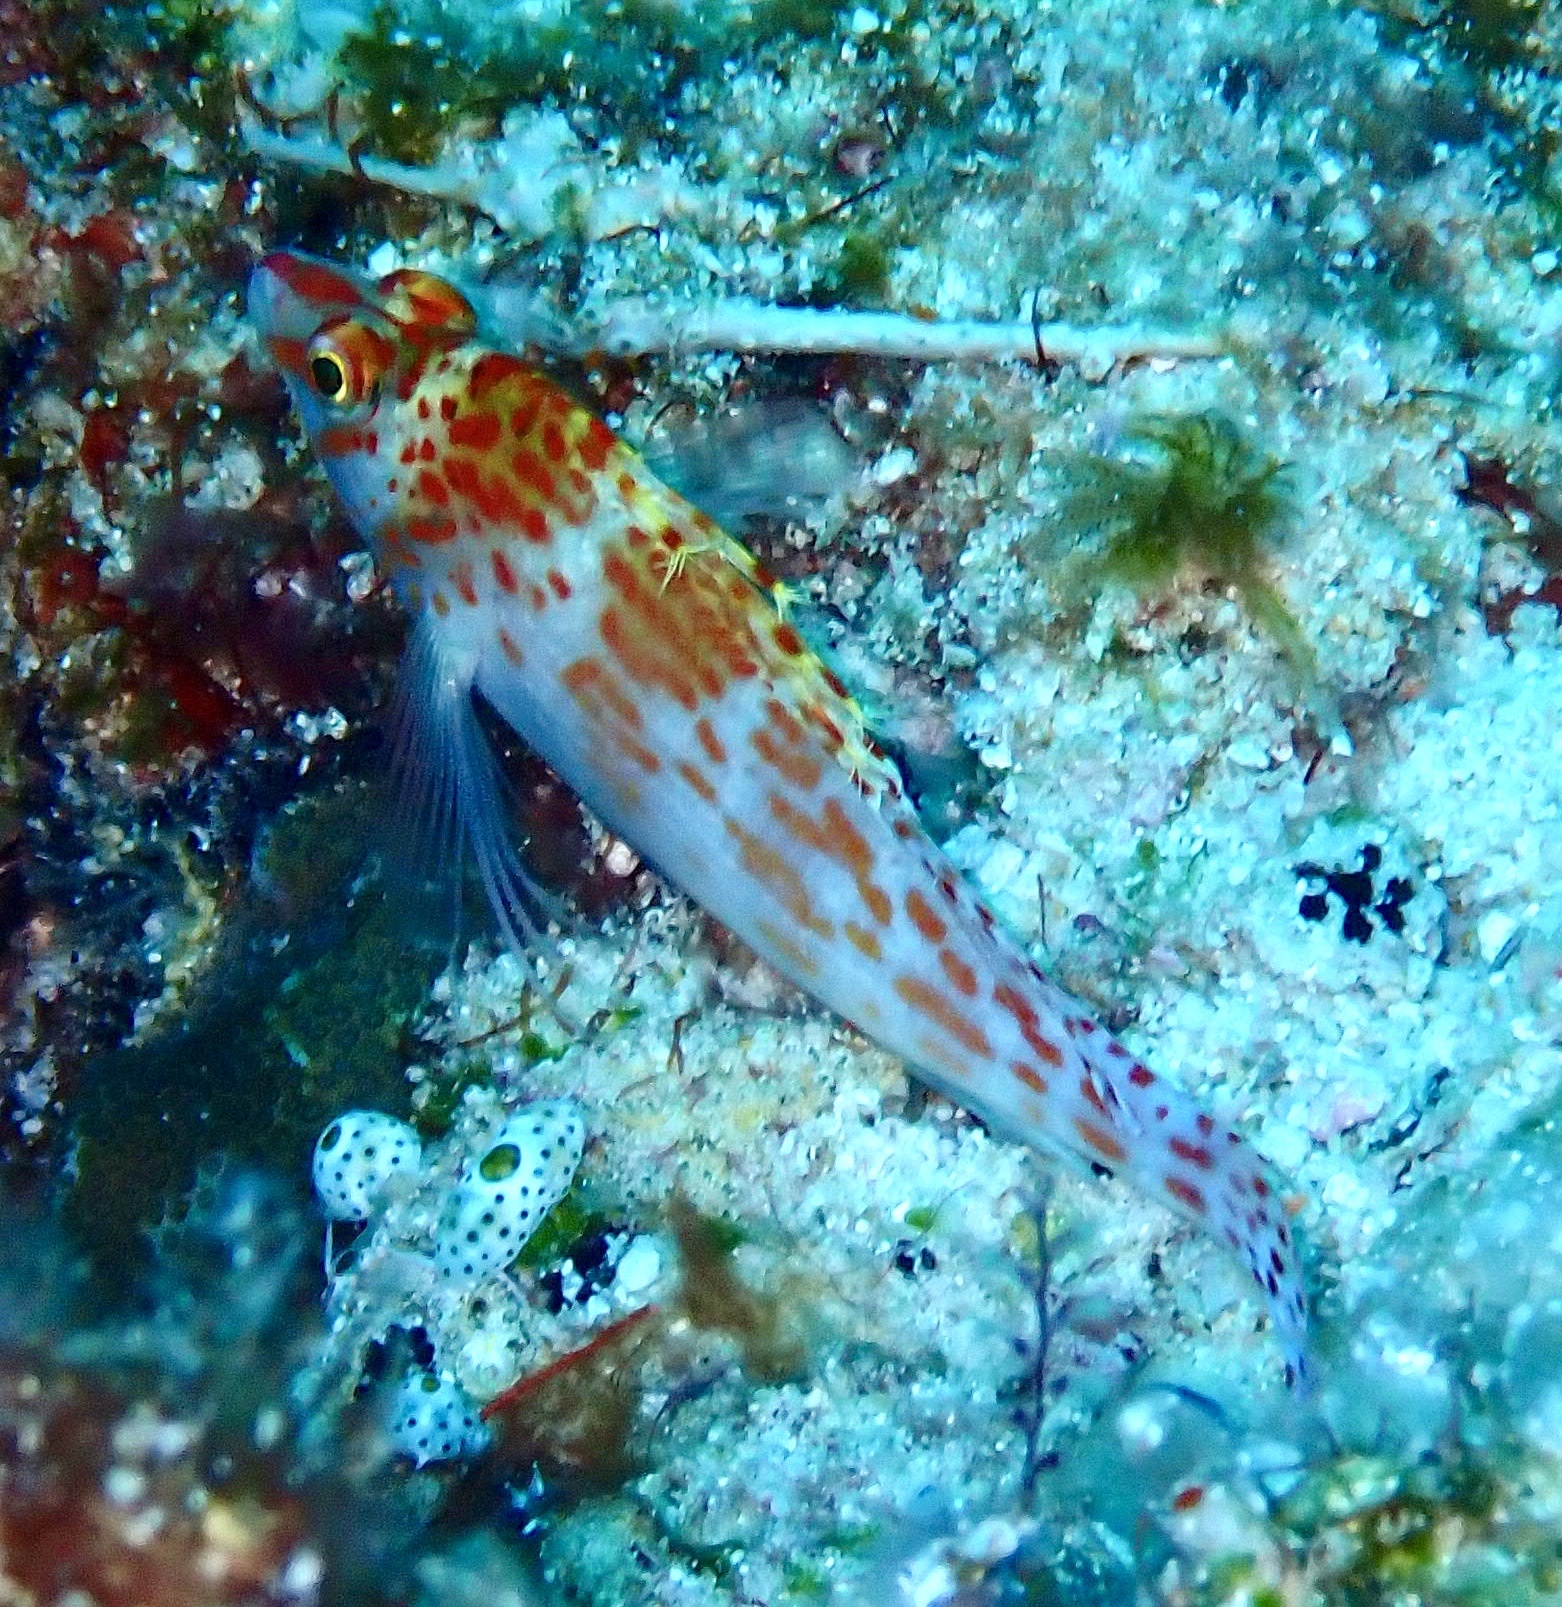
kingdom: Animalia
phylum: Chordata
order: Perciformes
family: Cirrhitidae
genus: Cirrhitichthys
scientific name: Cirrhitichthys falco
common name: Coral hawkfish
